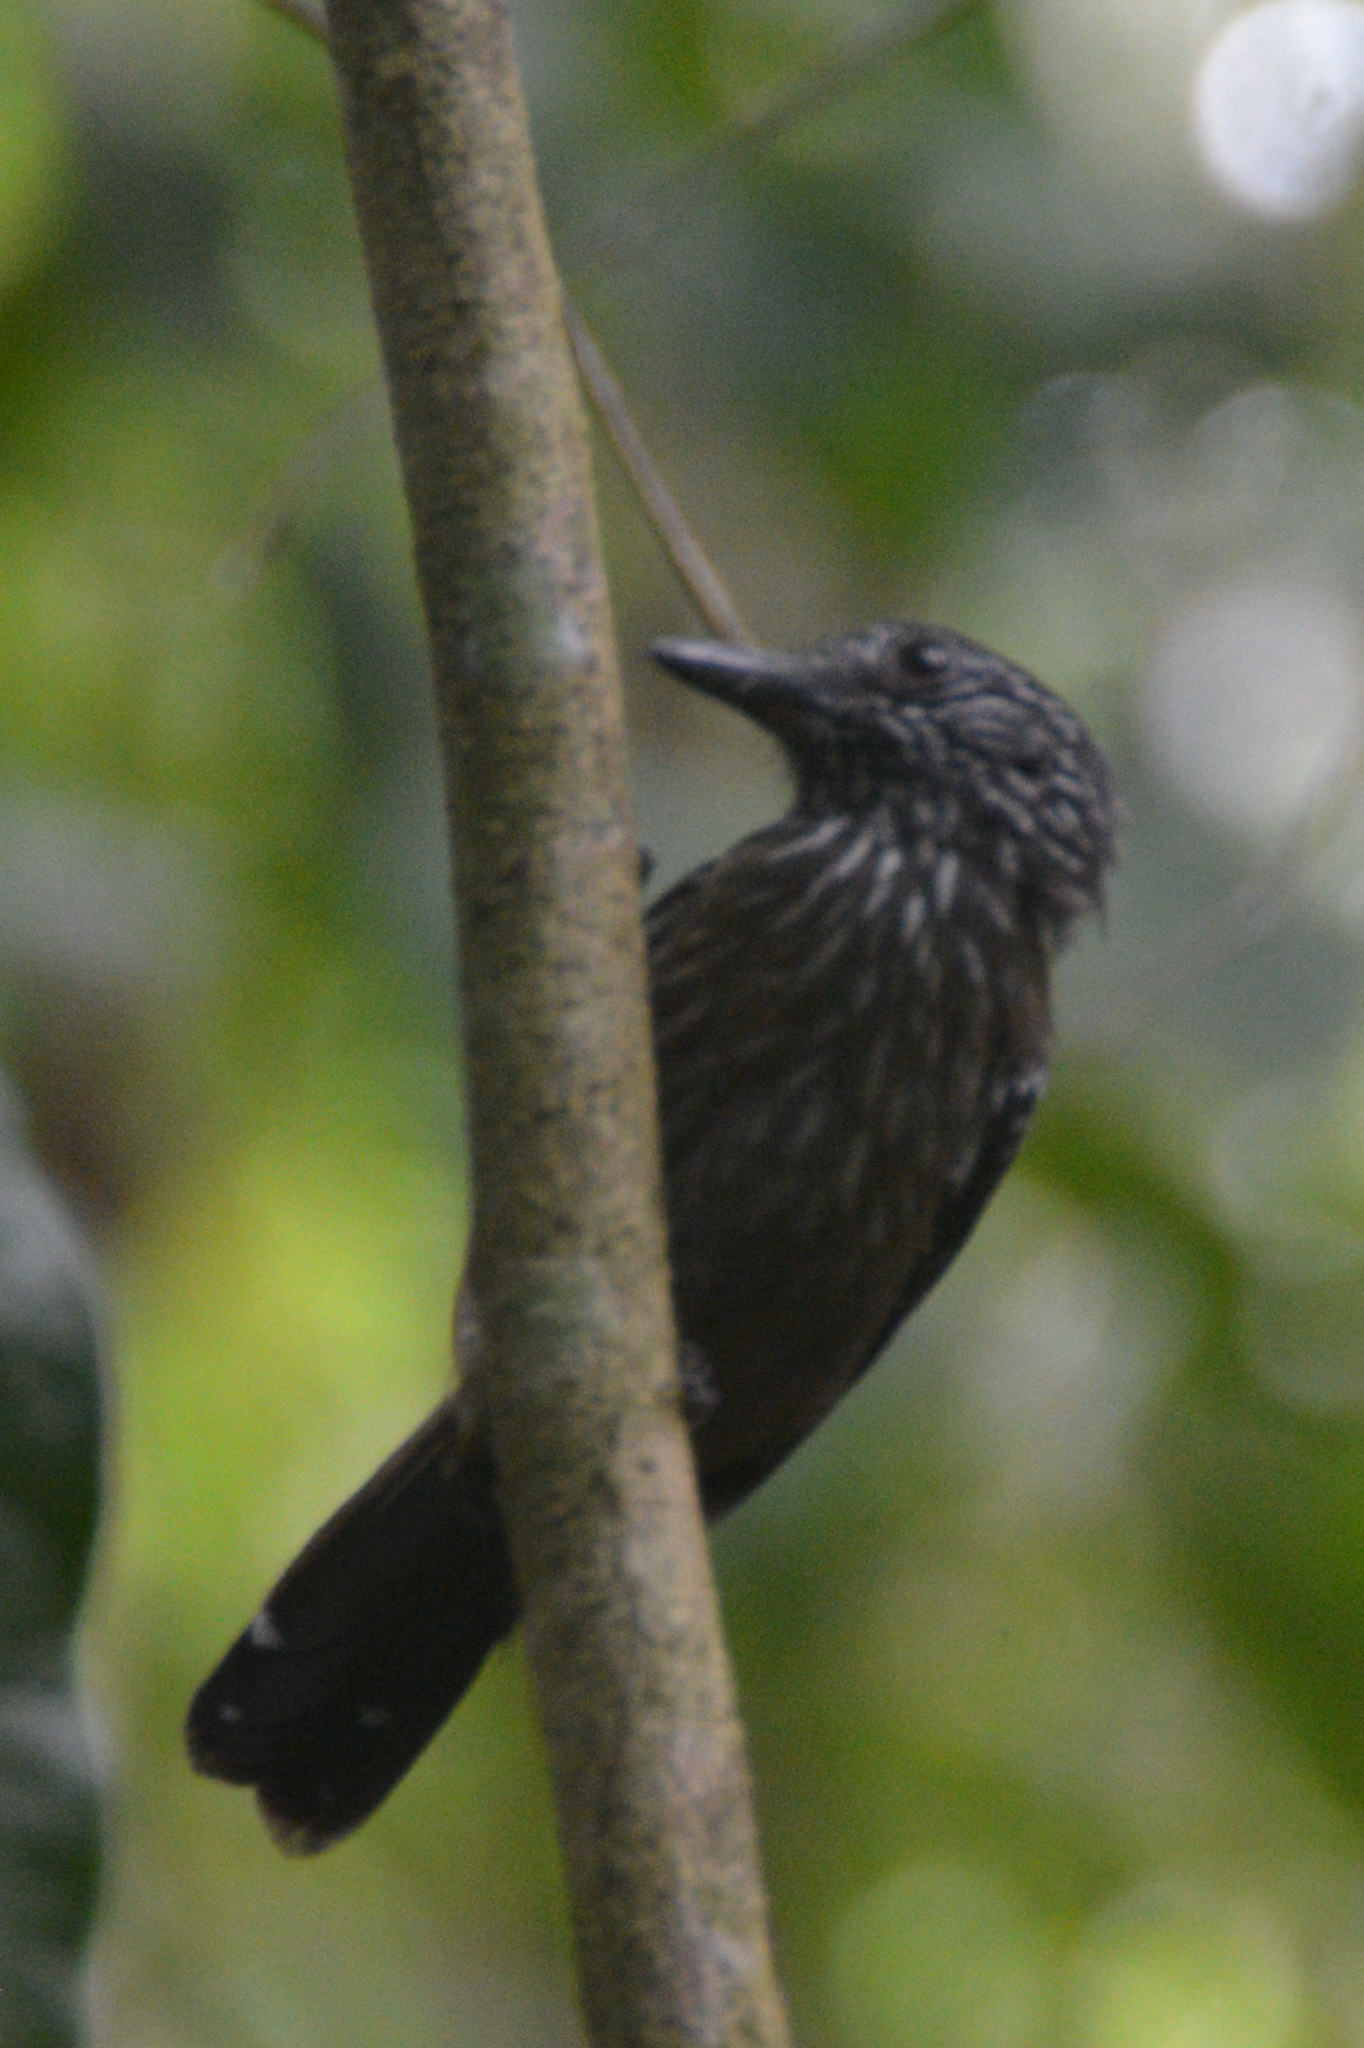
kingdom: Animalia
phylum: Chordata
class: Aves
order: Passeriformes
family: Thamnophilidae
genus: Thamnophilus
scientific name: Thamnophilus bridgesi
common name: Black-hooded antshrike
